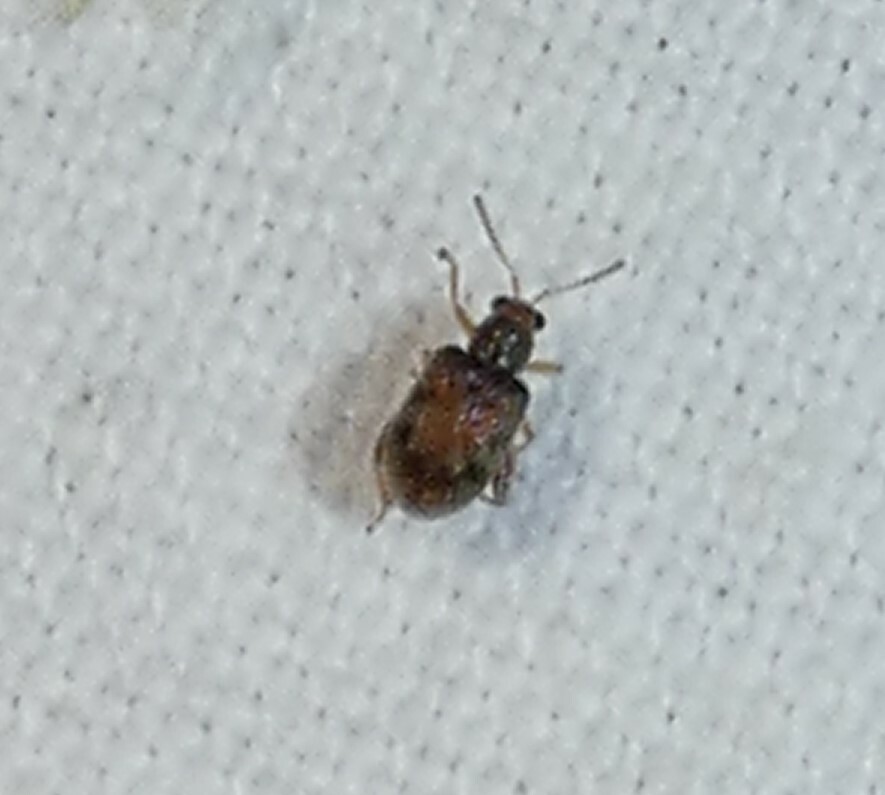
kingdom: Animalia
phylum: Arthropoda
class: Insecta
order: Coleoptera
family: Chrysomelidae
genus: Pseudolampis
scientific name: Pseudolampis guttata
